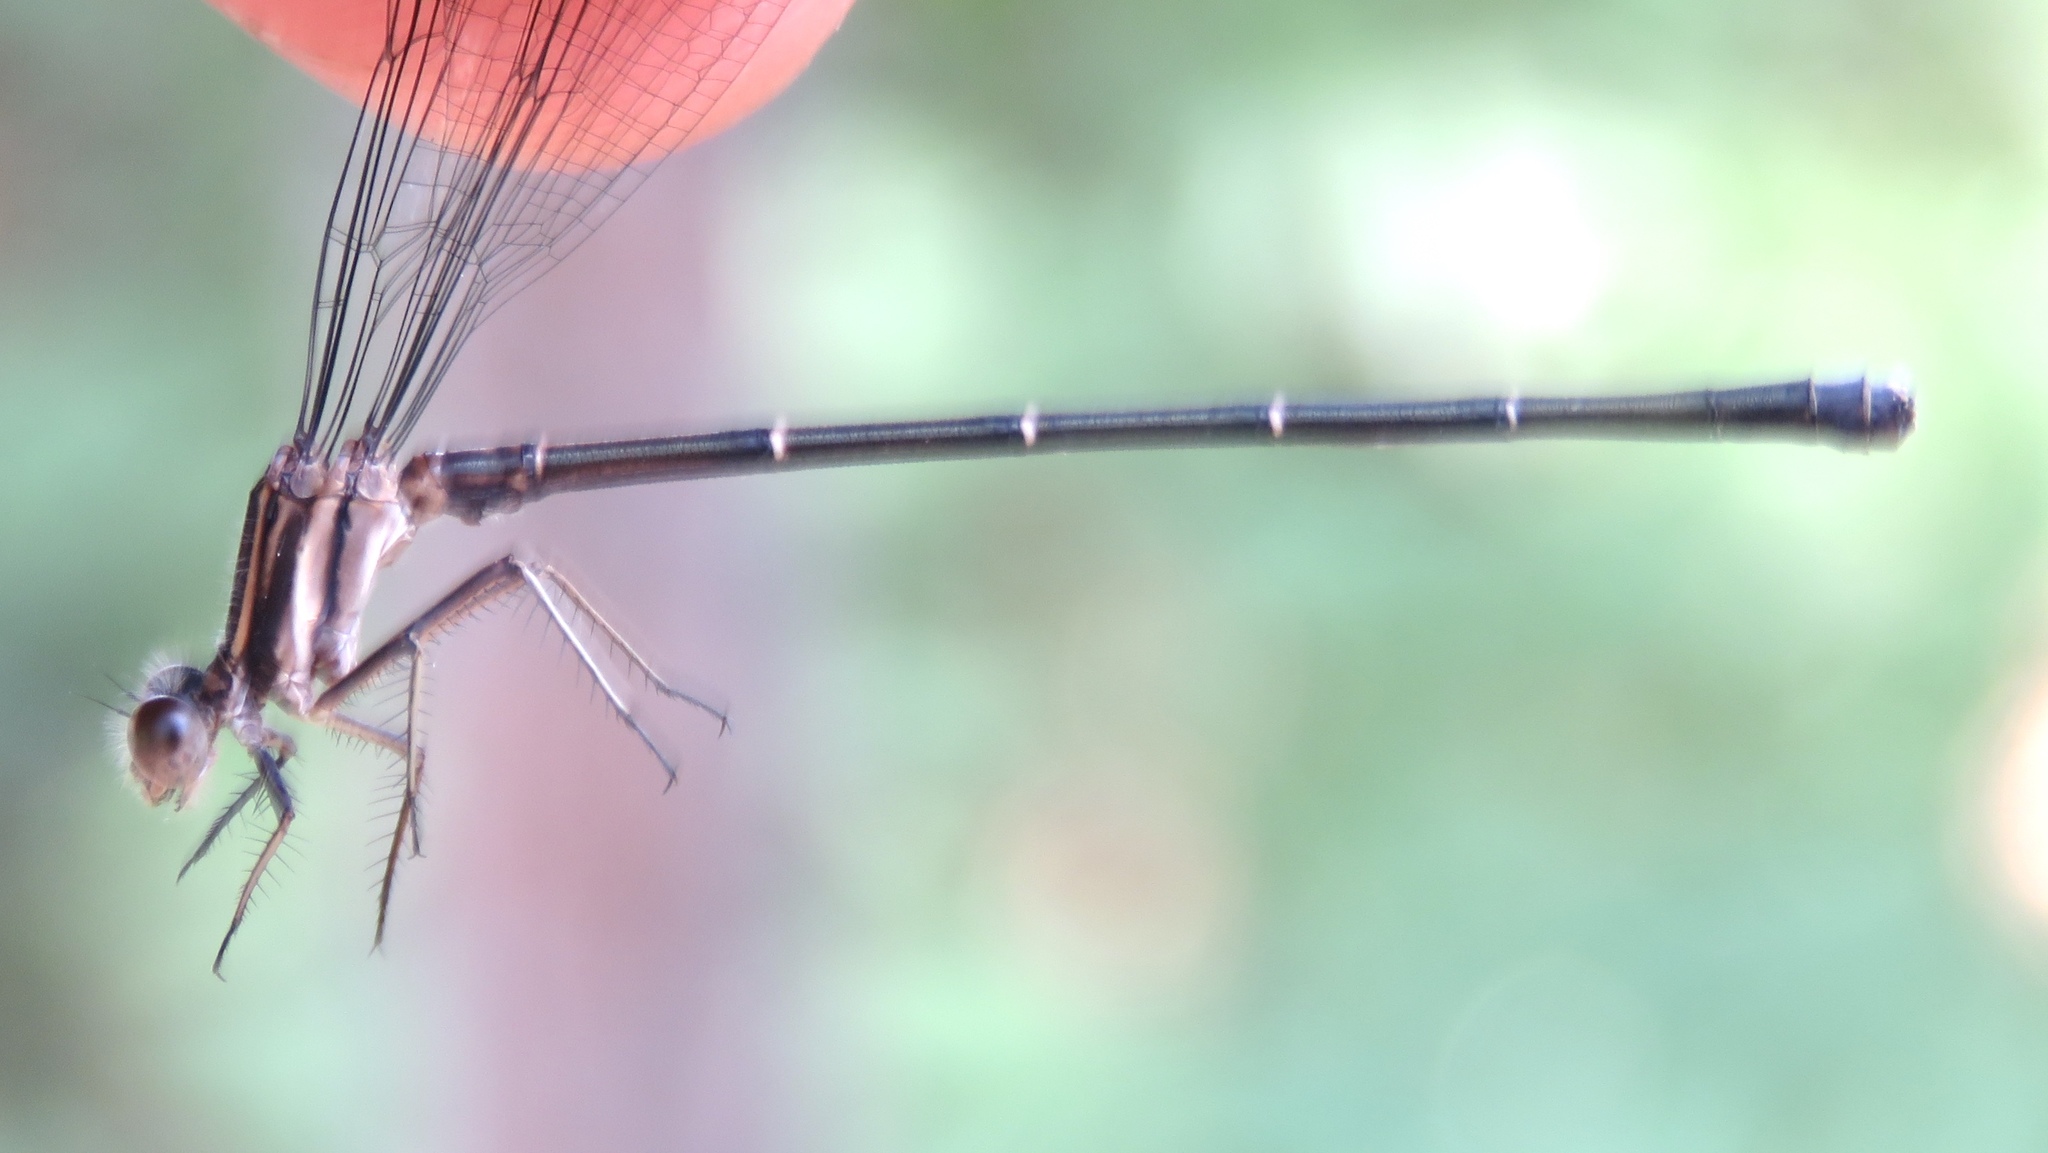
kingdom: Animalia
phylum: Arthropoda
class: Insecta
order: Odonata
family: Coenagrionidae
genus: Argia
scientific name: Argia moesta
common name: Powdered dancer
